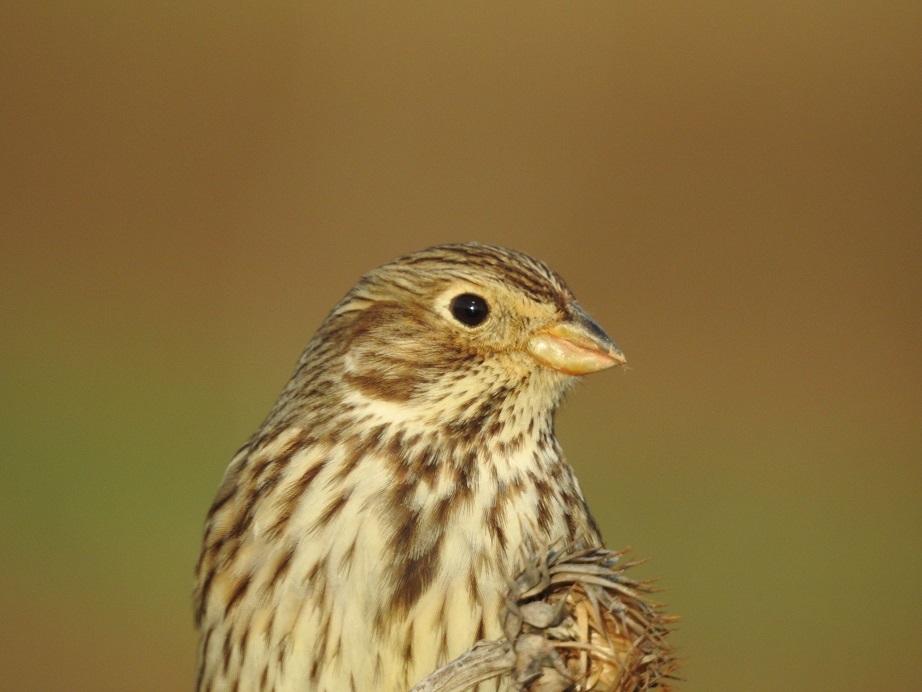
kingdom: Animalia
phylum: Chordata
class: Aves
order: Passeriformes
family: Emberizidae
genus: Emberiza
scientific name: Emberiza calandra
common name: Corn bunting
